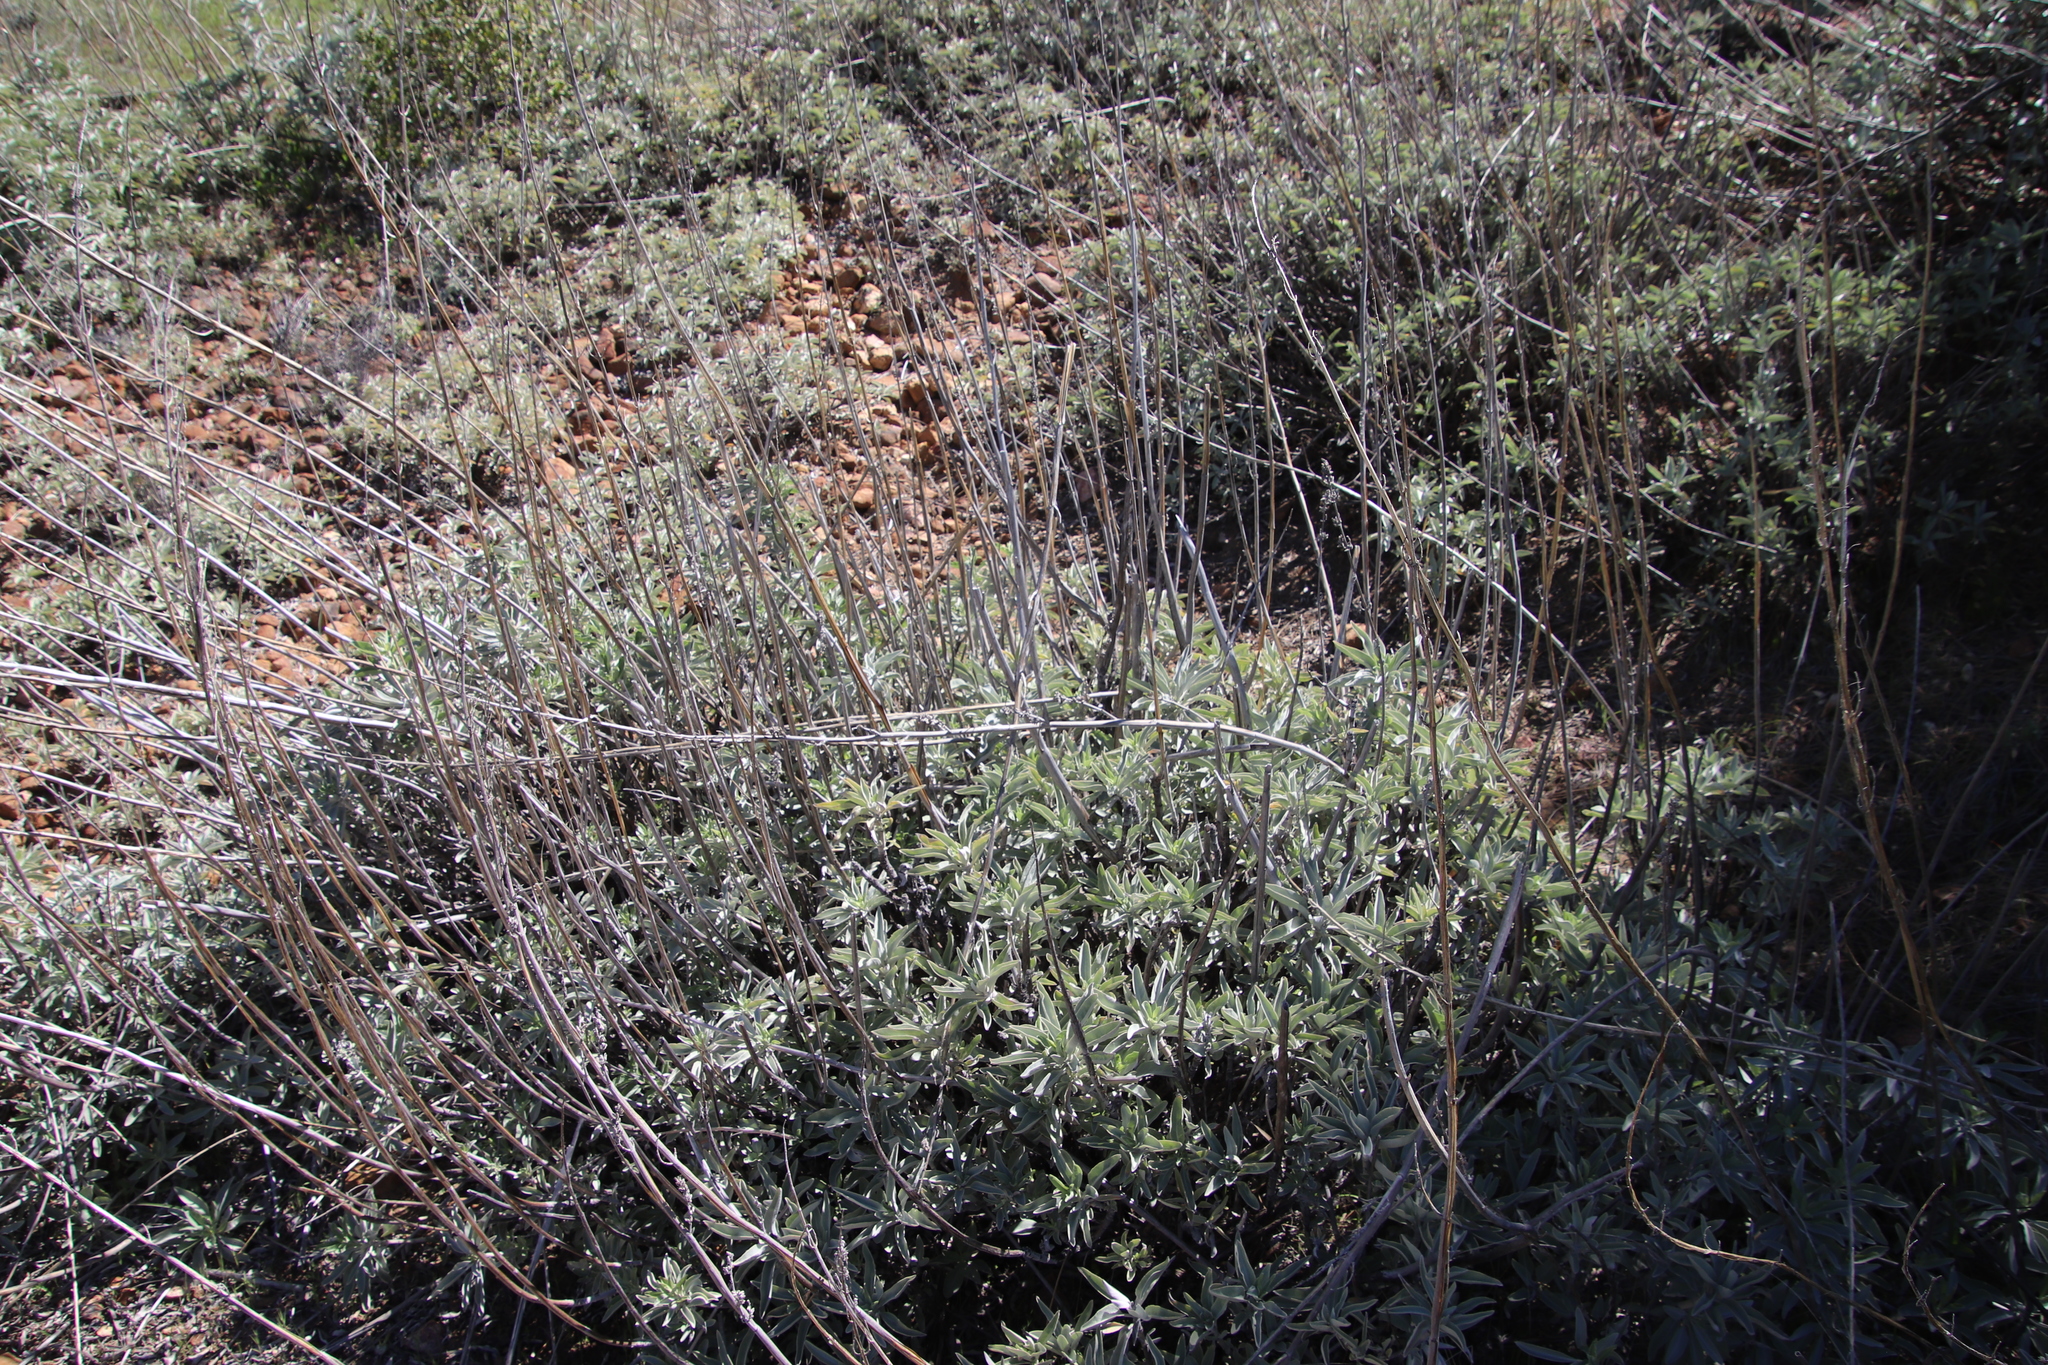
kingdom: Plantae
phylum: Tracheophyta
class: Magnoliopsida
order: Lamiales
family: Lamiaceae
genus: Salvia
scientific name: Salvia apiana
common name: White sage
